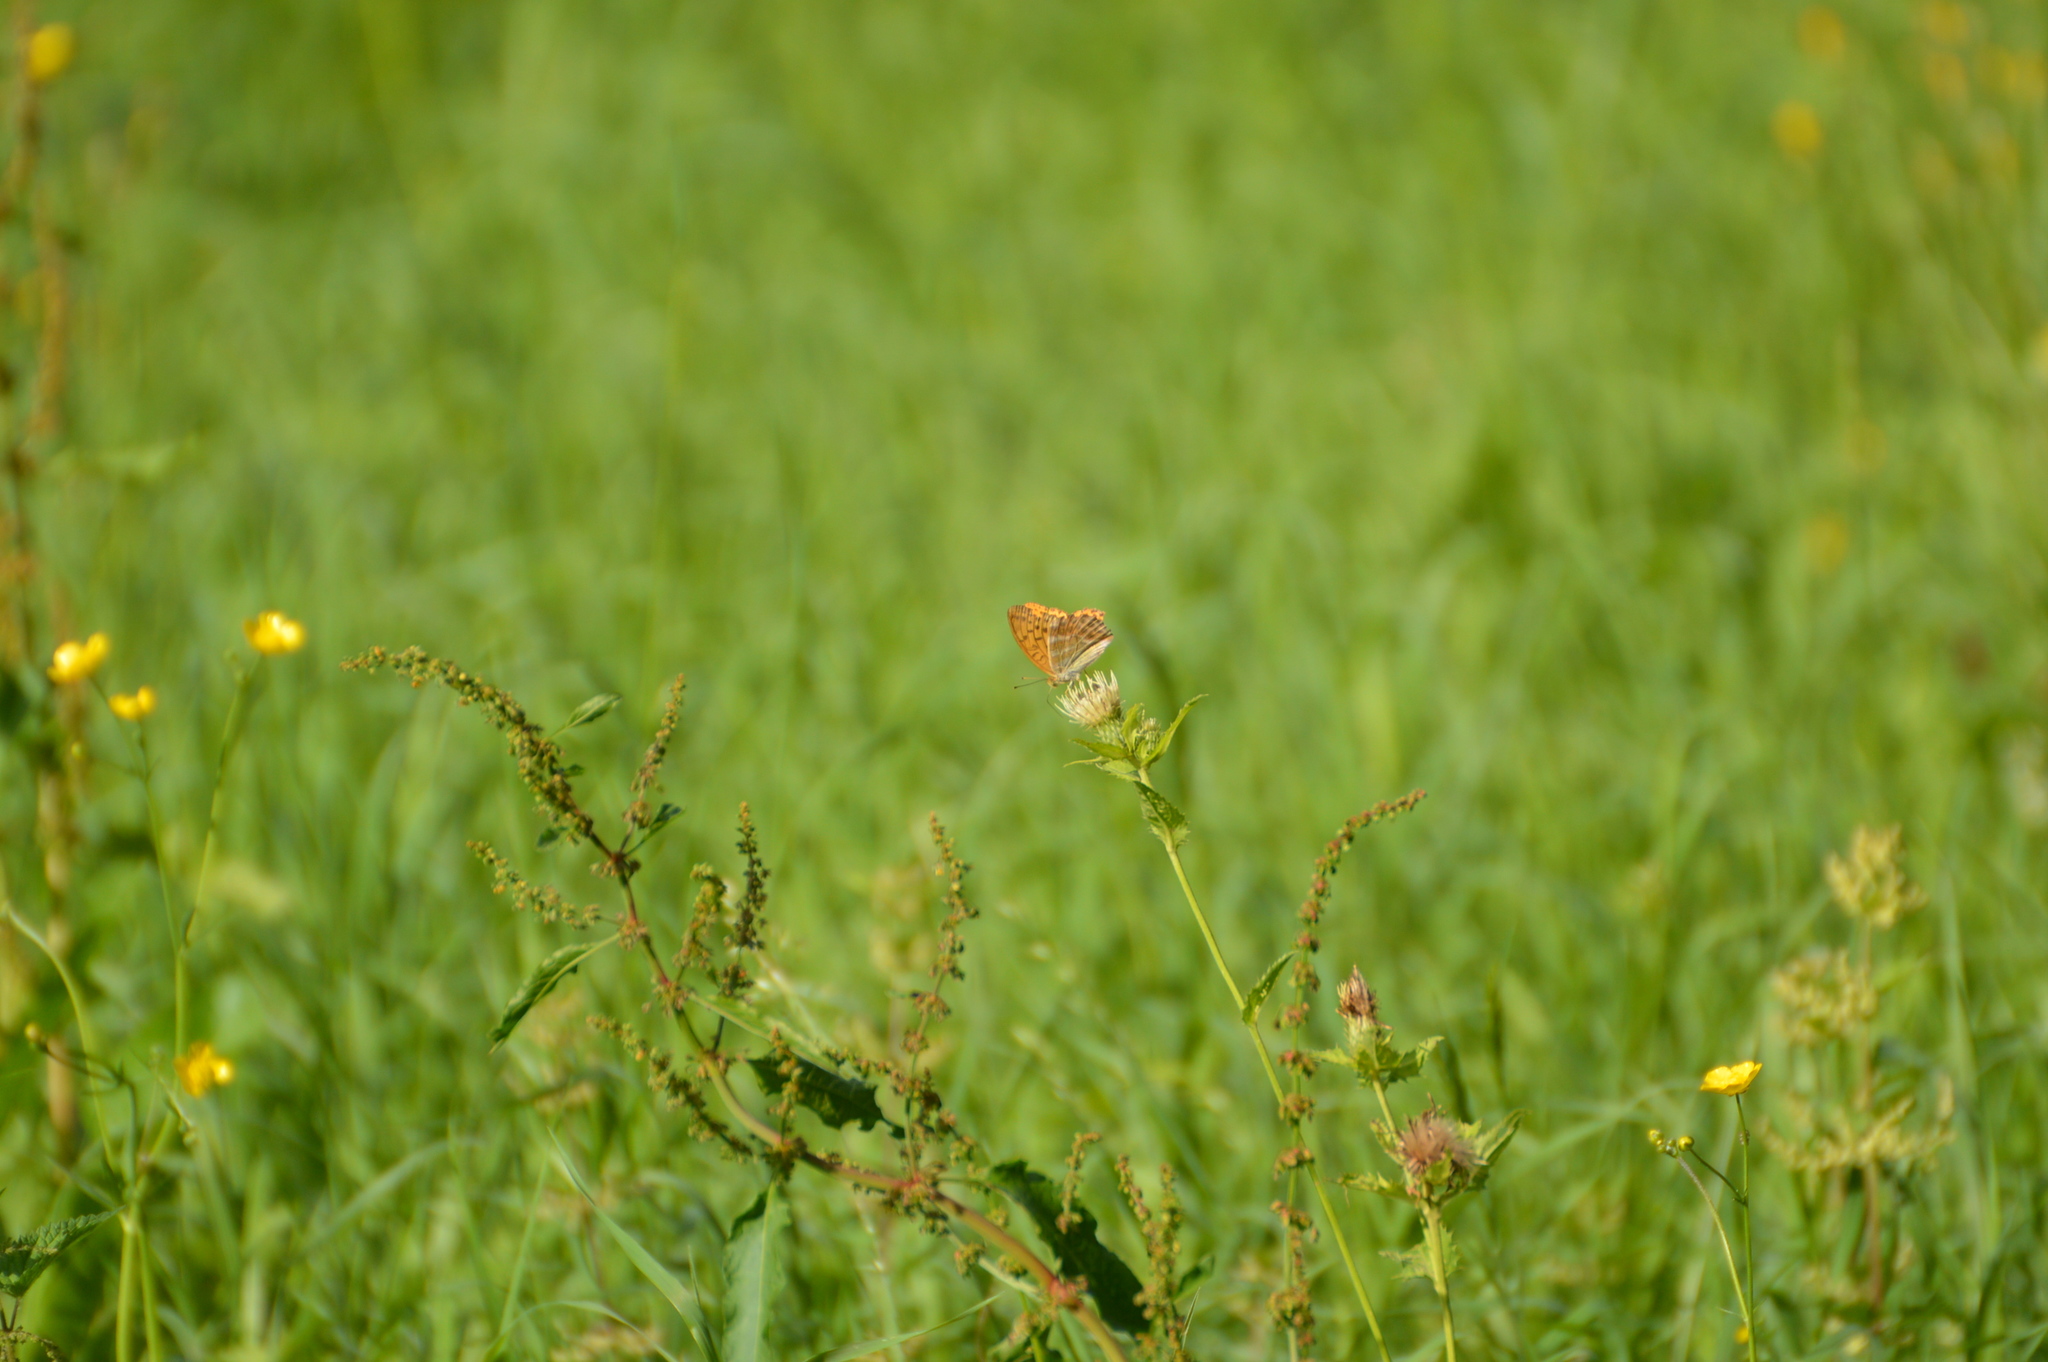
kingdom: Animalia
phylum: Arthropoda
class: Insecta
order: Lepidoptera
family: Nymphalidae
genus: Argynnis
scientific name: Argynnis paphia
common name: Silver-washed fritillary
